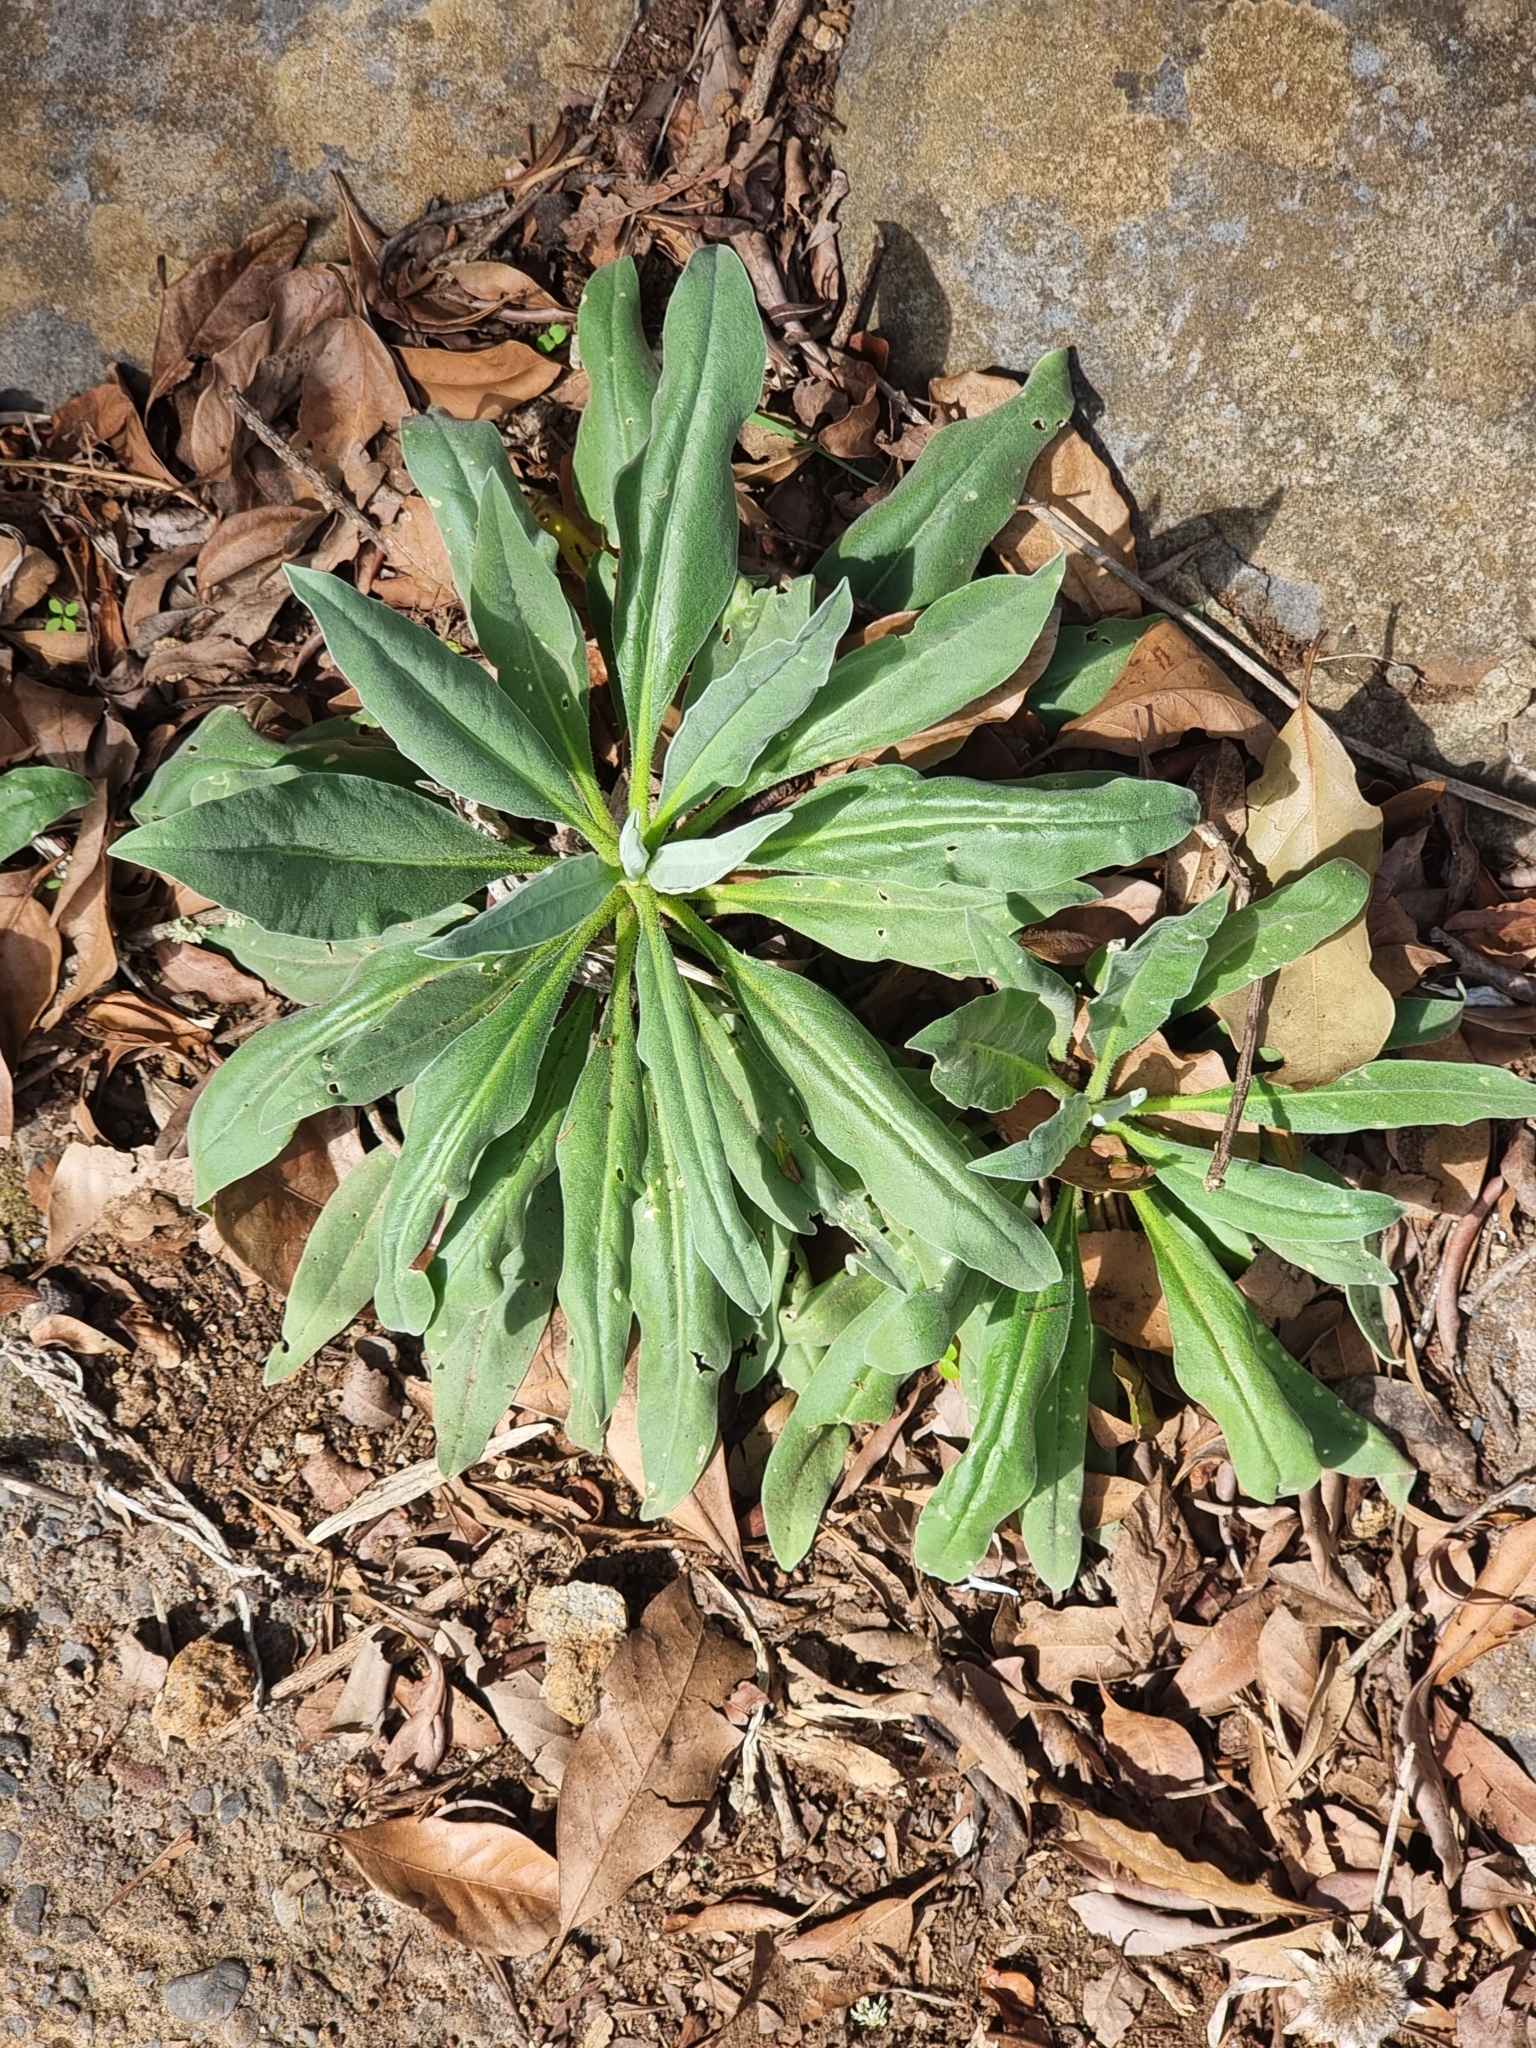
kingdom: Plantae
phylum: Tracheophyta
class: Magnoliopsida
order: Brassicales
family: Brassicaceae
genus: Matthiola
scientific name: Matthiola maderensis
